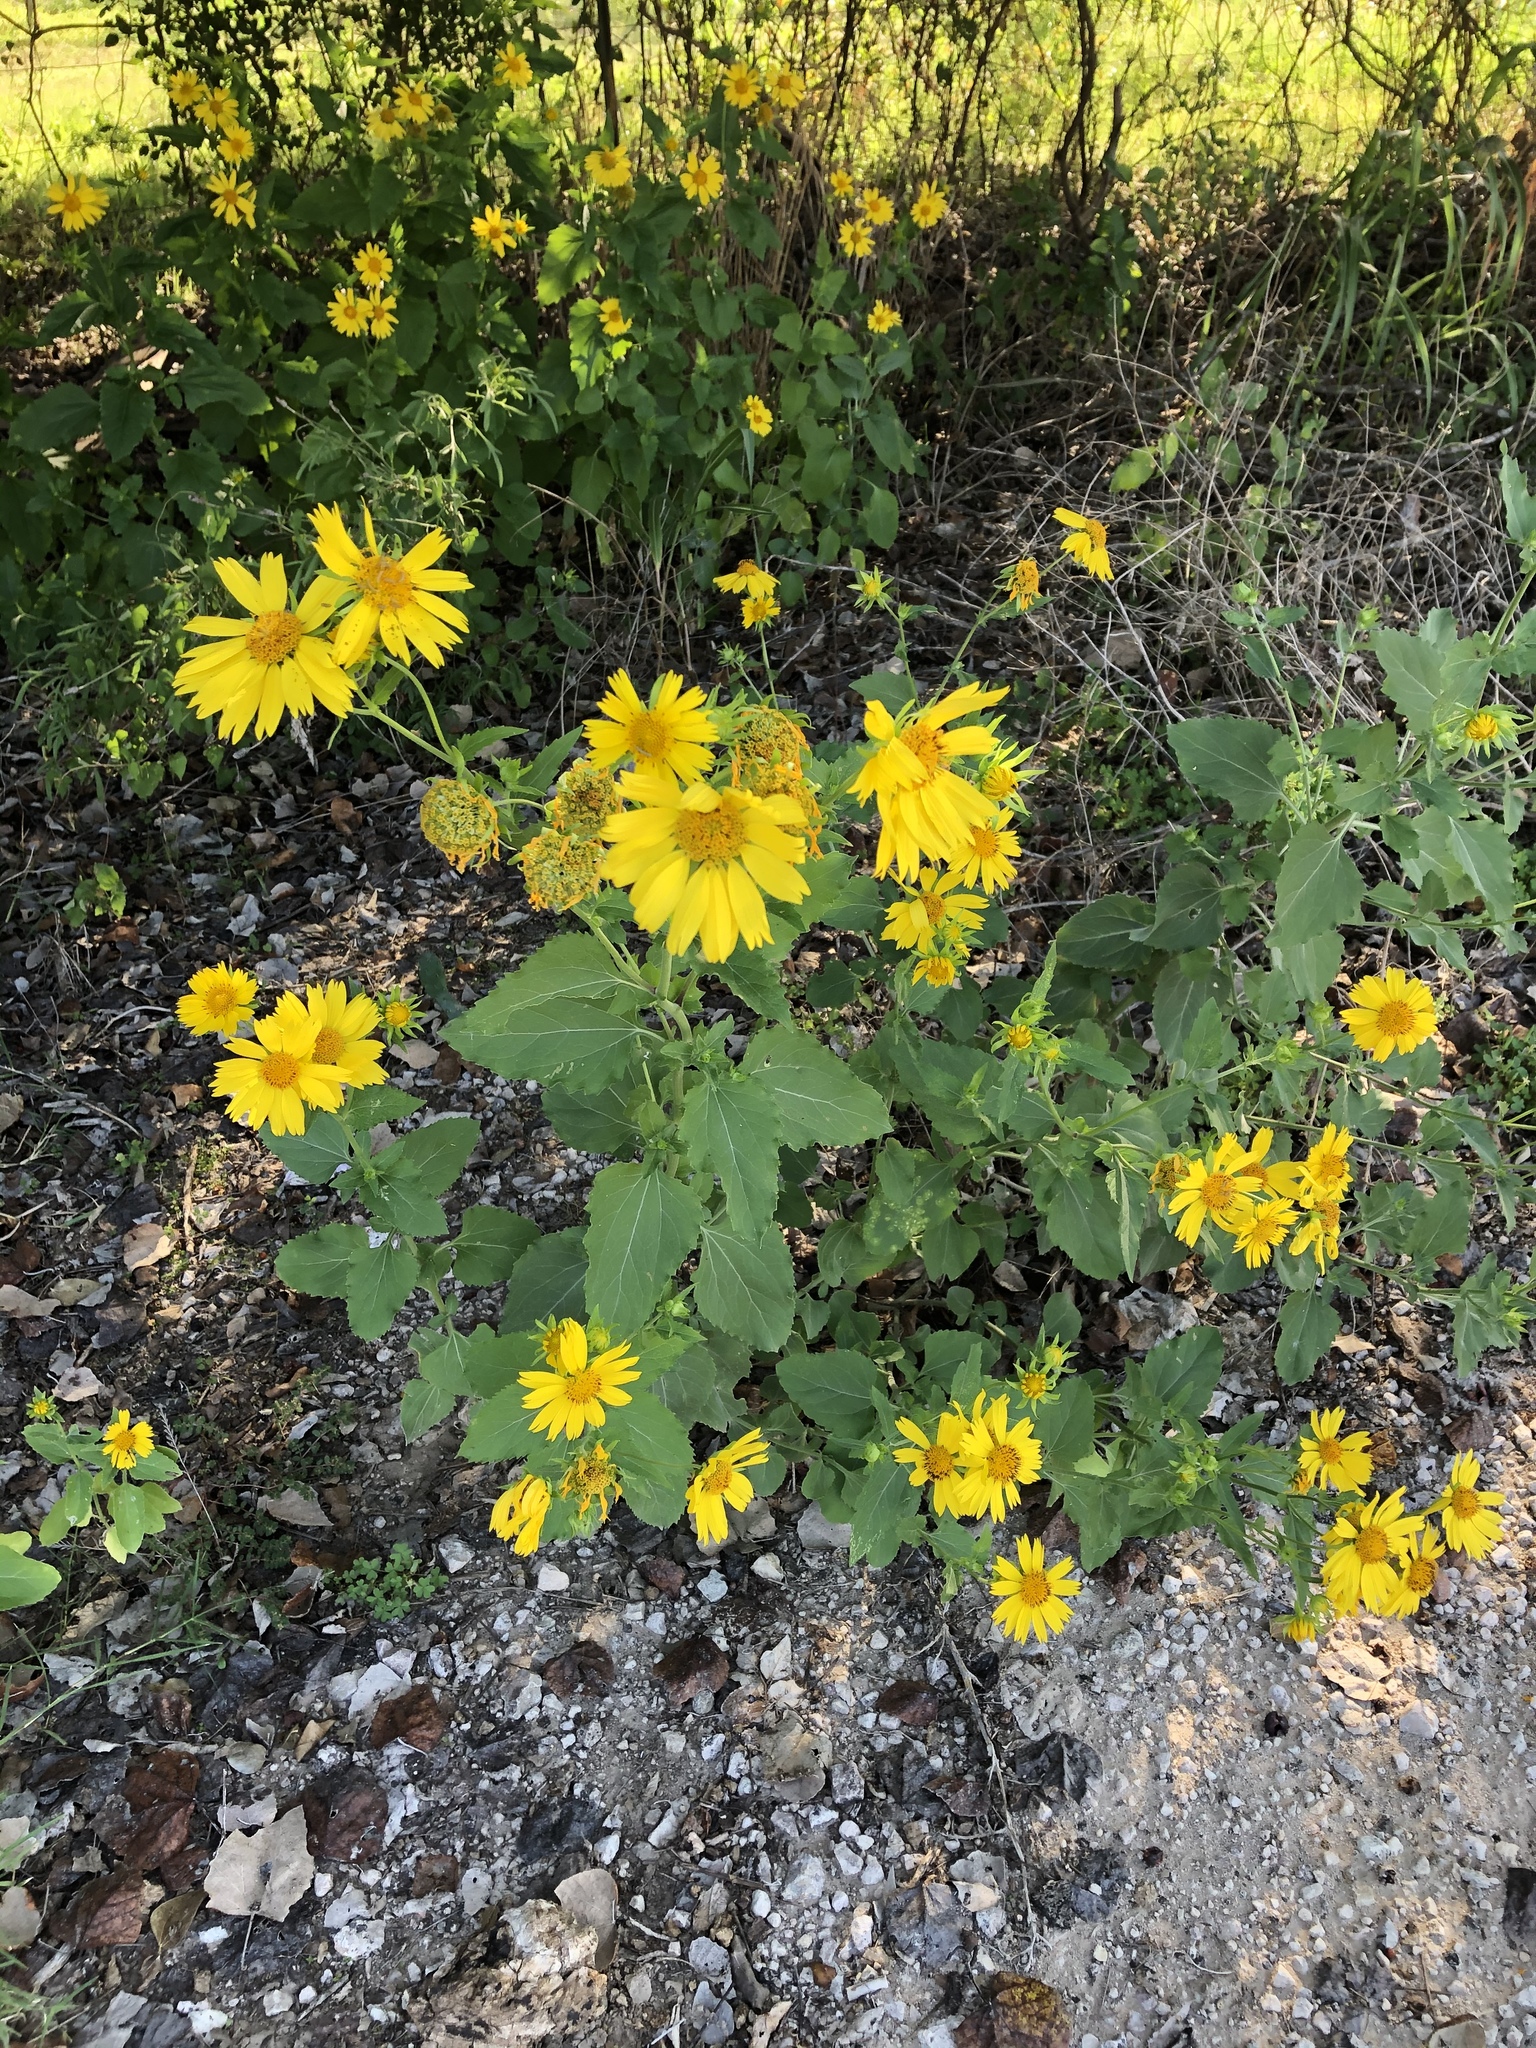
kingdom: Plantae
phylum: Tracheophyta
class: Magnoliopsida
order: Asterales
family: Asteraceae
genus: Verbesina
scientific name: Verbesina encelioides
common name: Golden crownbeard
